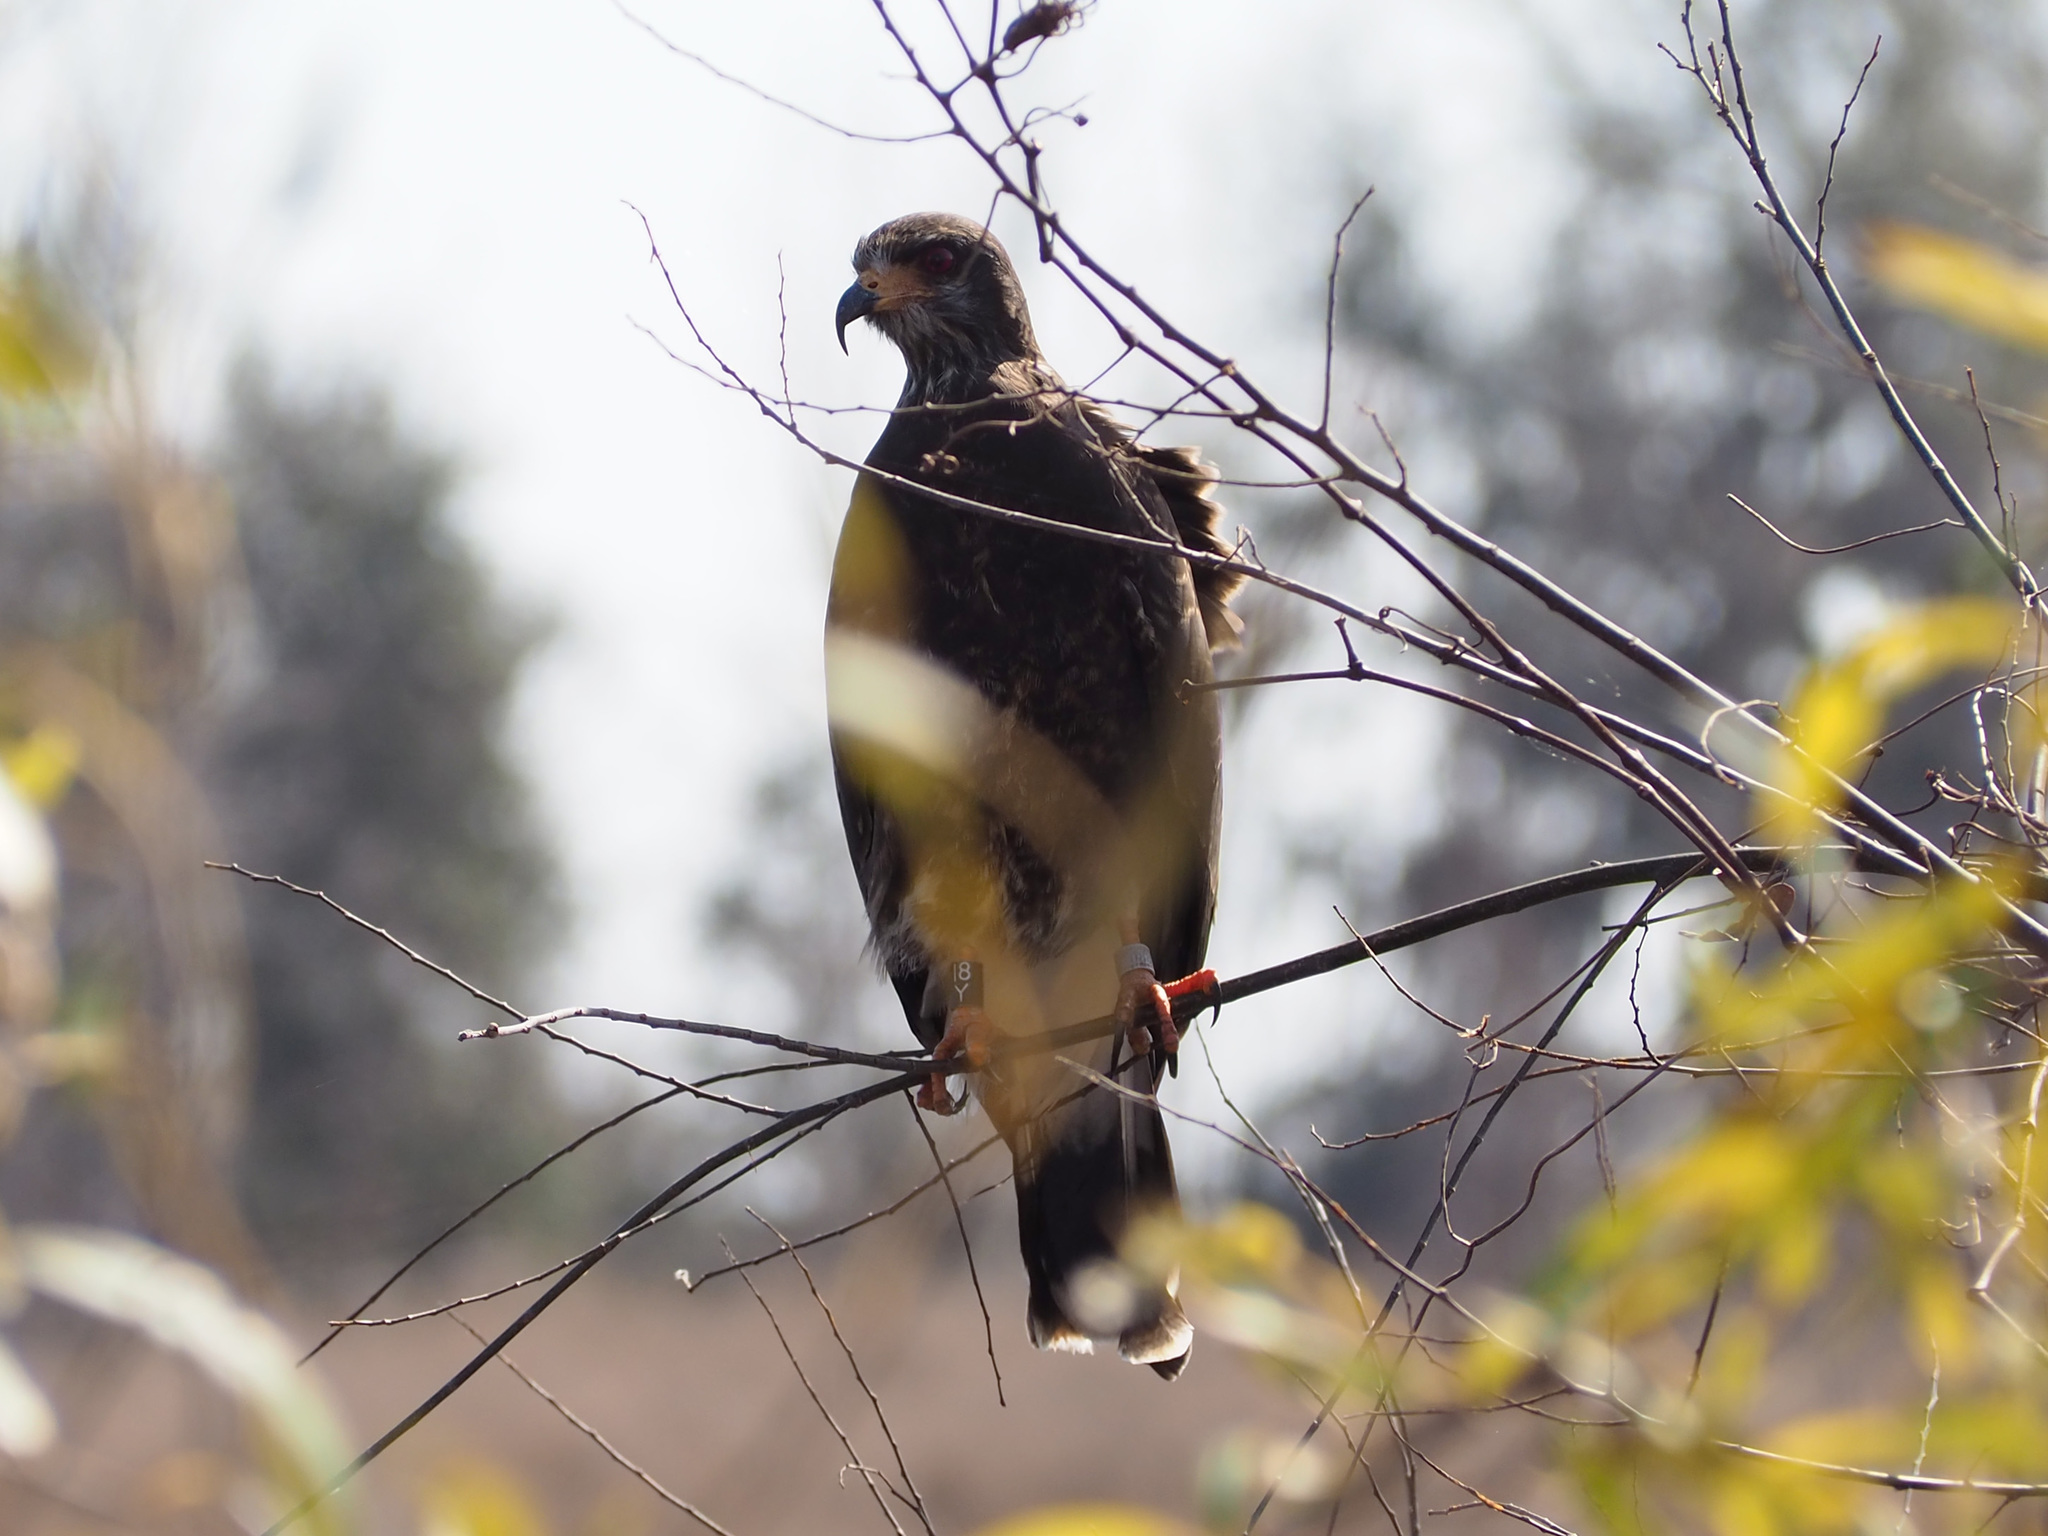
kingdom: Animalia
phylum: Chordata
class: Aves
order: Accipitriformes
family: Accipitridae
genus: Rostrhamus
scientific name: Rostrhamus sociabilis
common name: Snail kite
